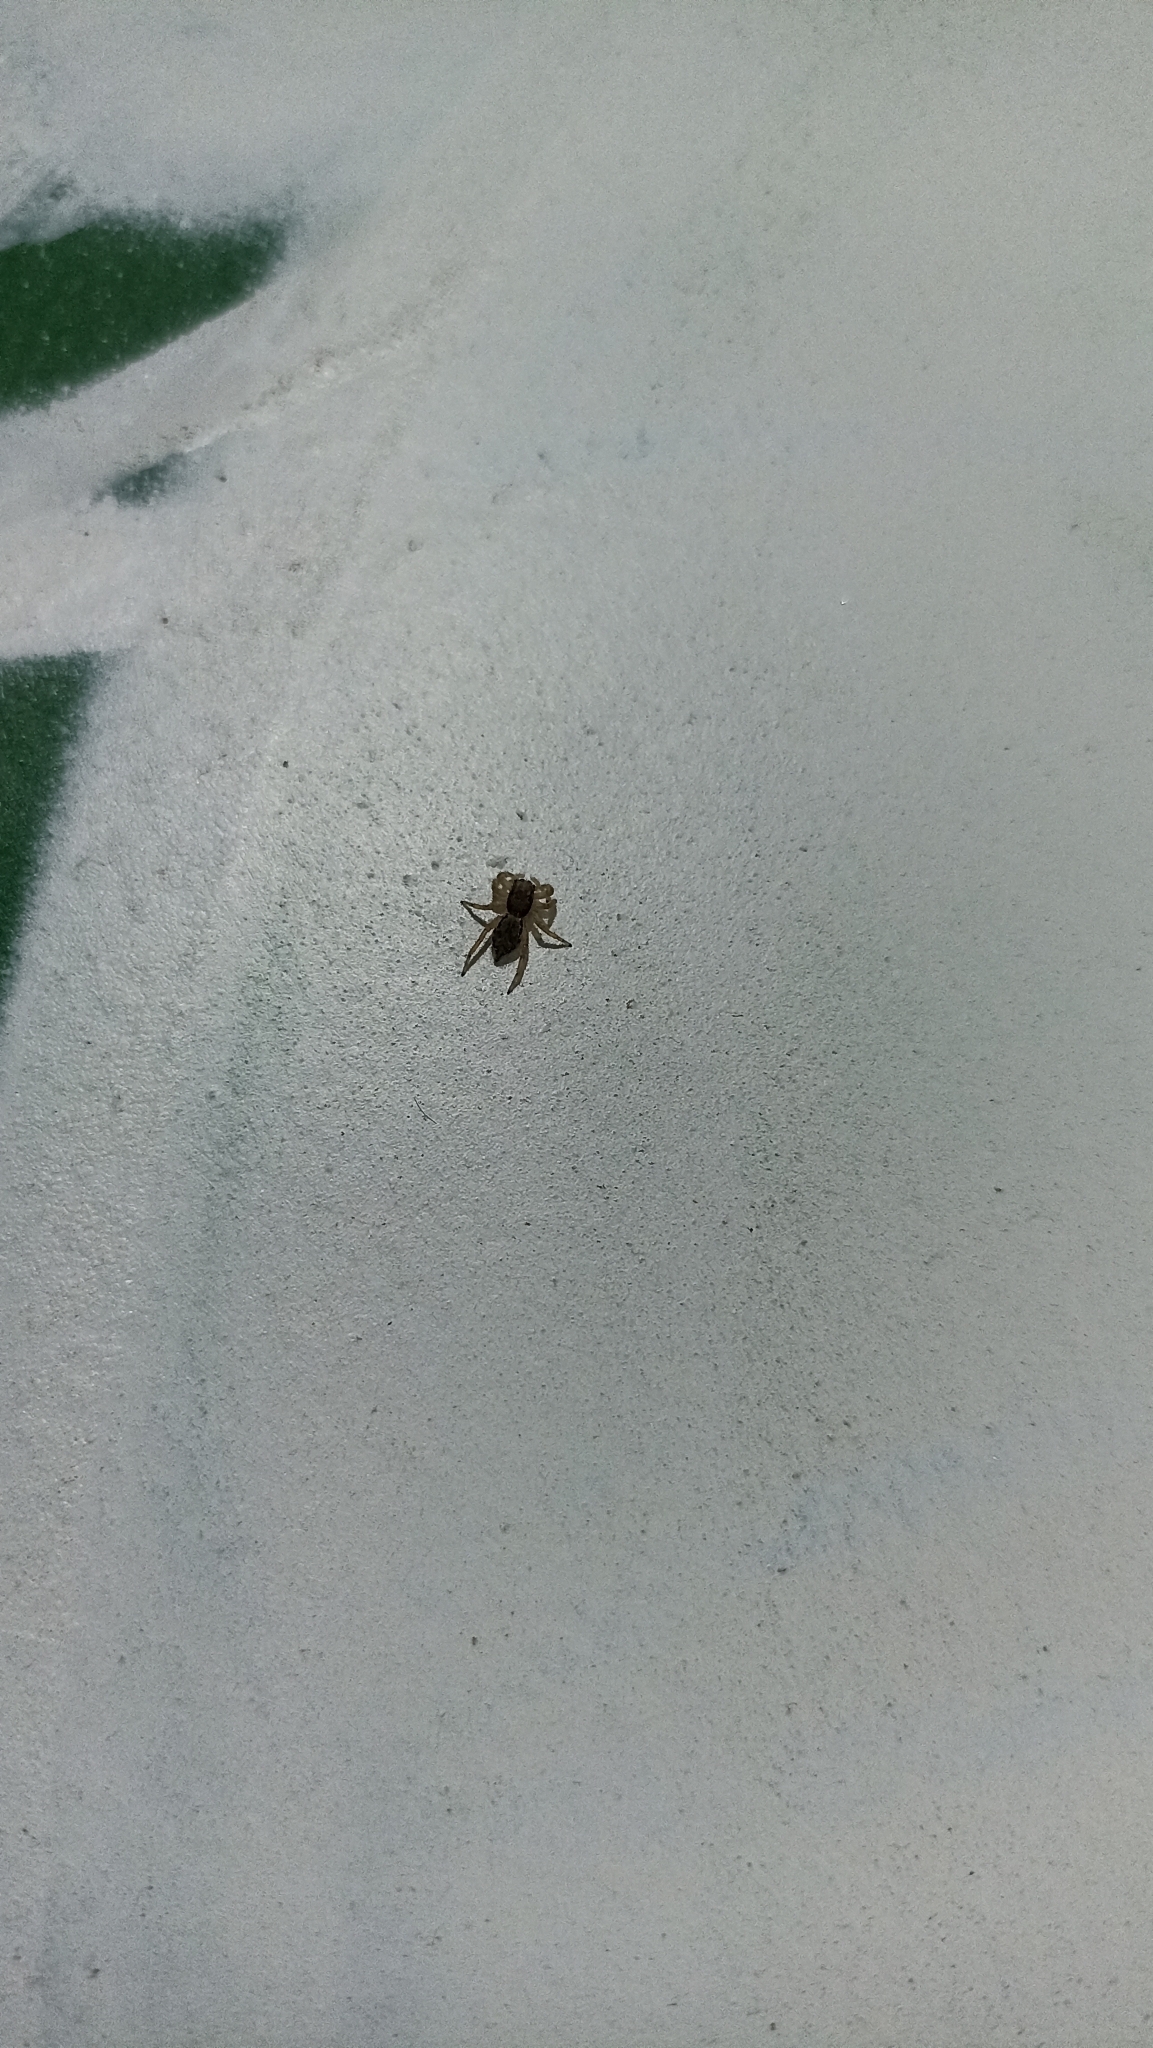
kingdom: Animalia
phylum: Arthropoda
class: Arachnida
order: Araneae
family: Salticidae
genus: Menemerus
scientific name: Menemerus bivittatus
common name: Gray wall jumper
